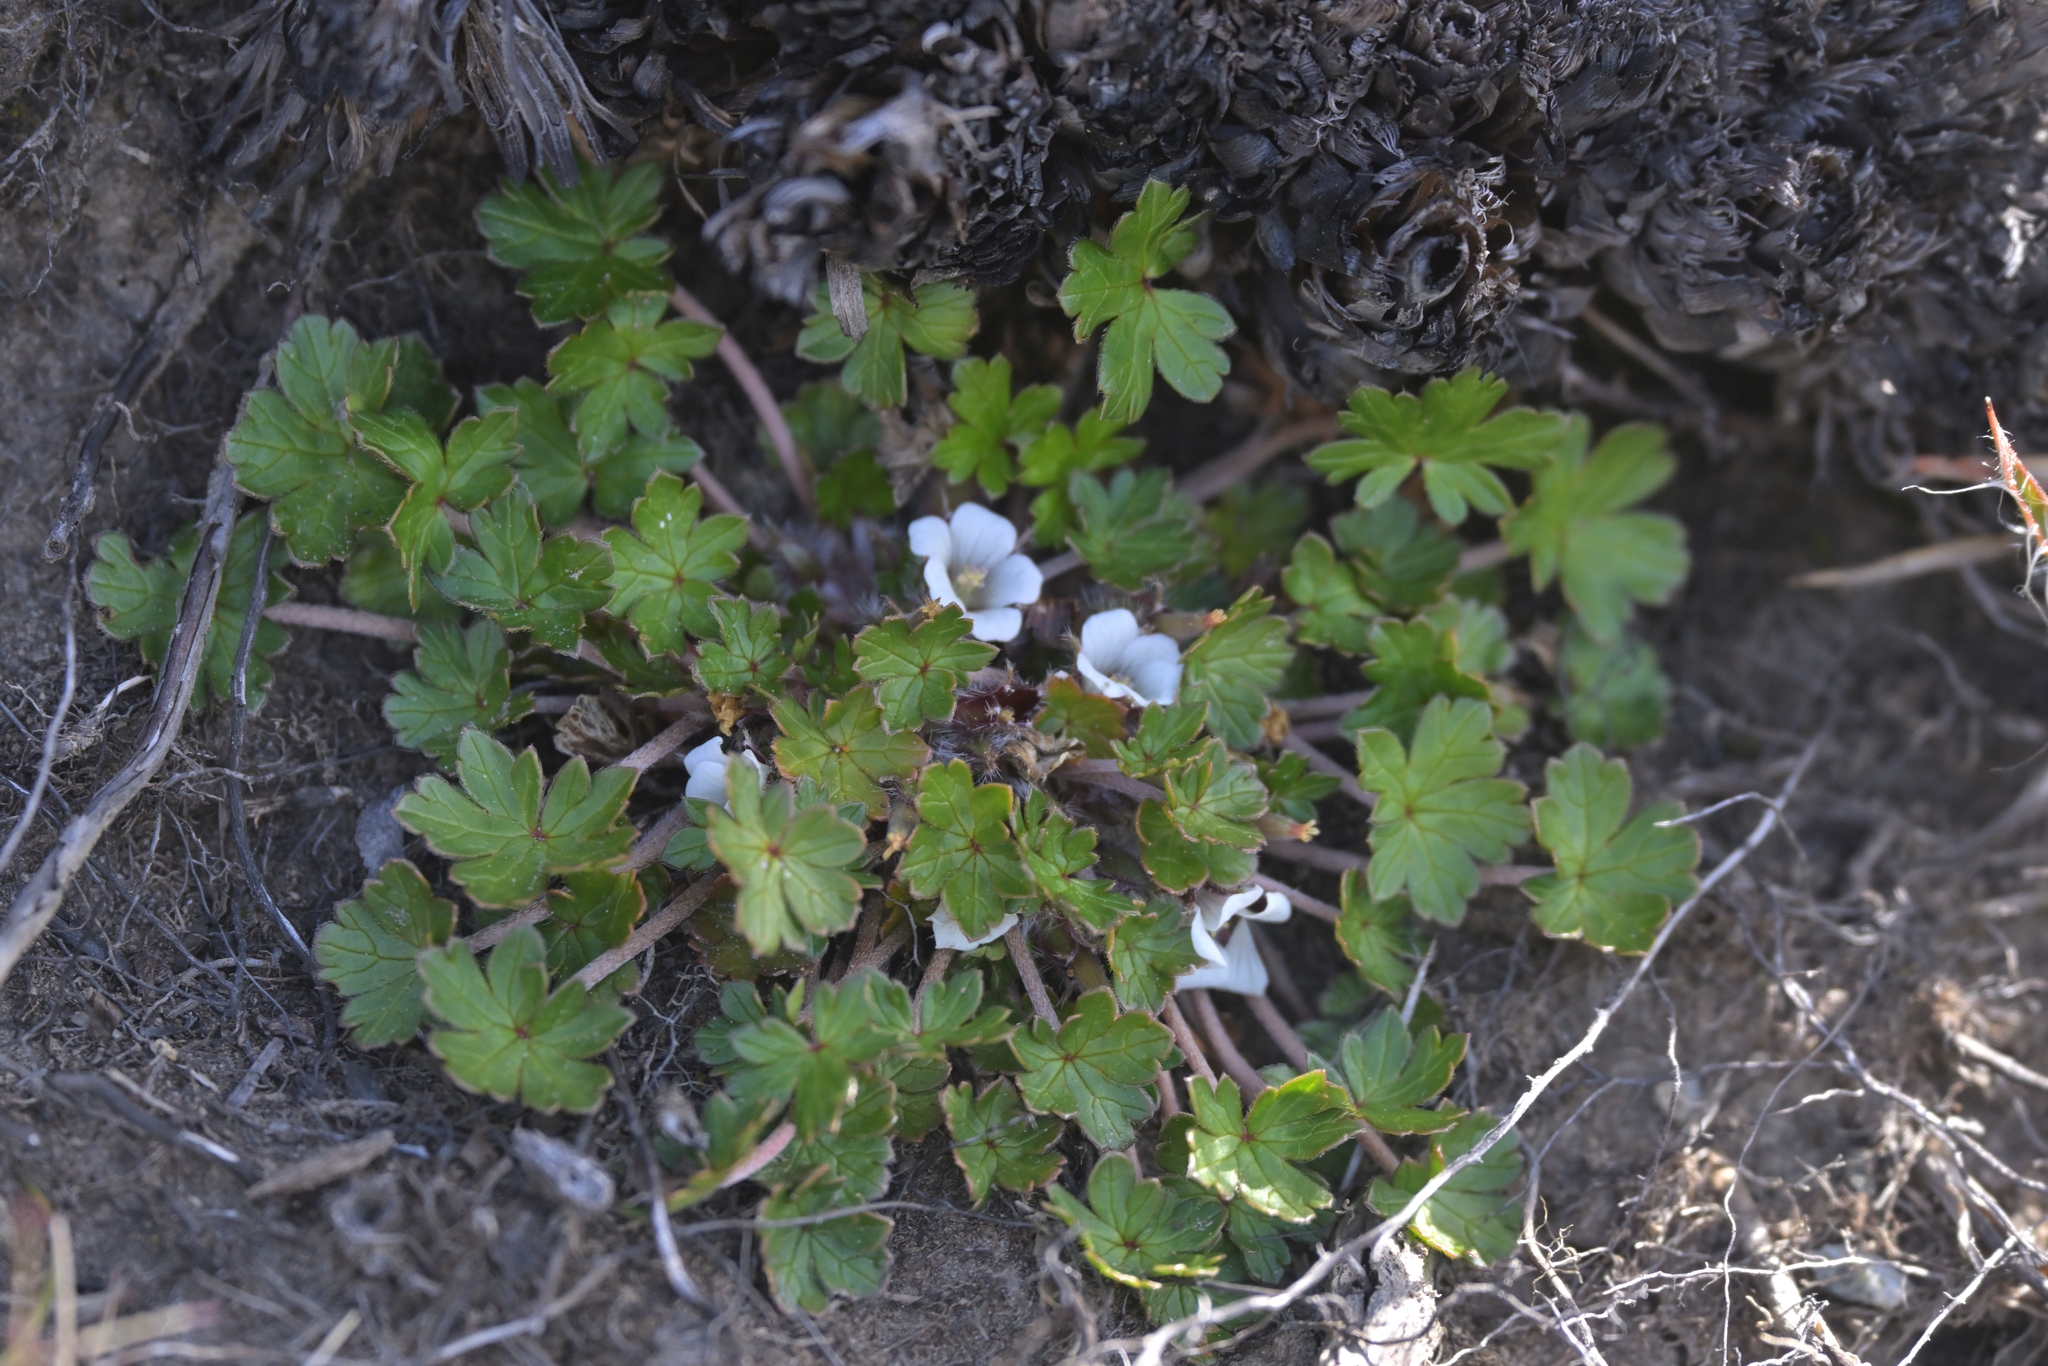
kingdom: Plantae
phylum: Tracheophyta
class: Magnoliopsida
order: Geraniales
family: Geraniaceae
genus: Geranium
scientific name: Geranium brevicaule
